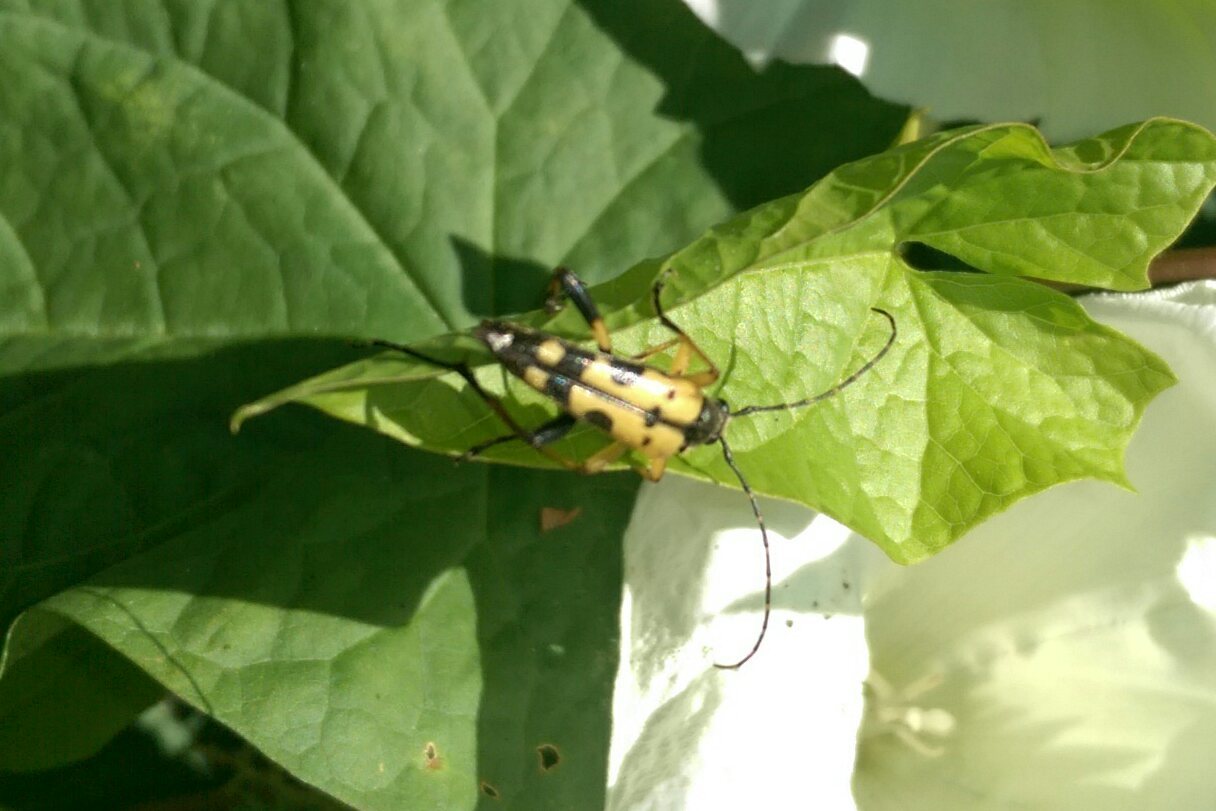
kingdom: Animalia
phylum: Arthropoda
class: Insecta
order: Coleoptera
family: Cerambycidae
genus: Rutpela
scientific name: Rutpela maculata
